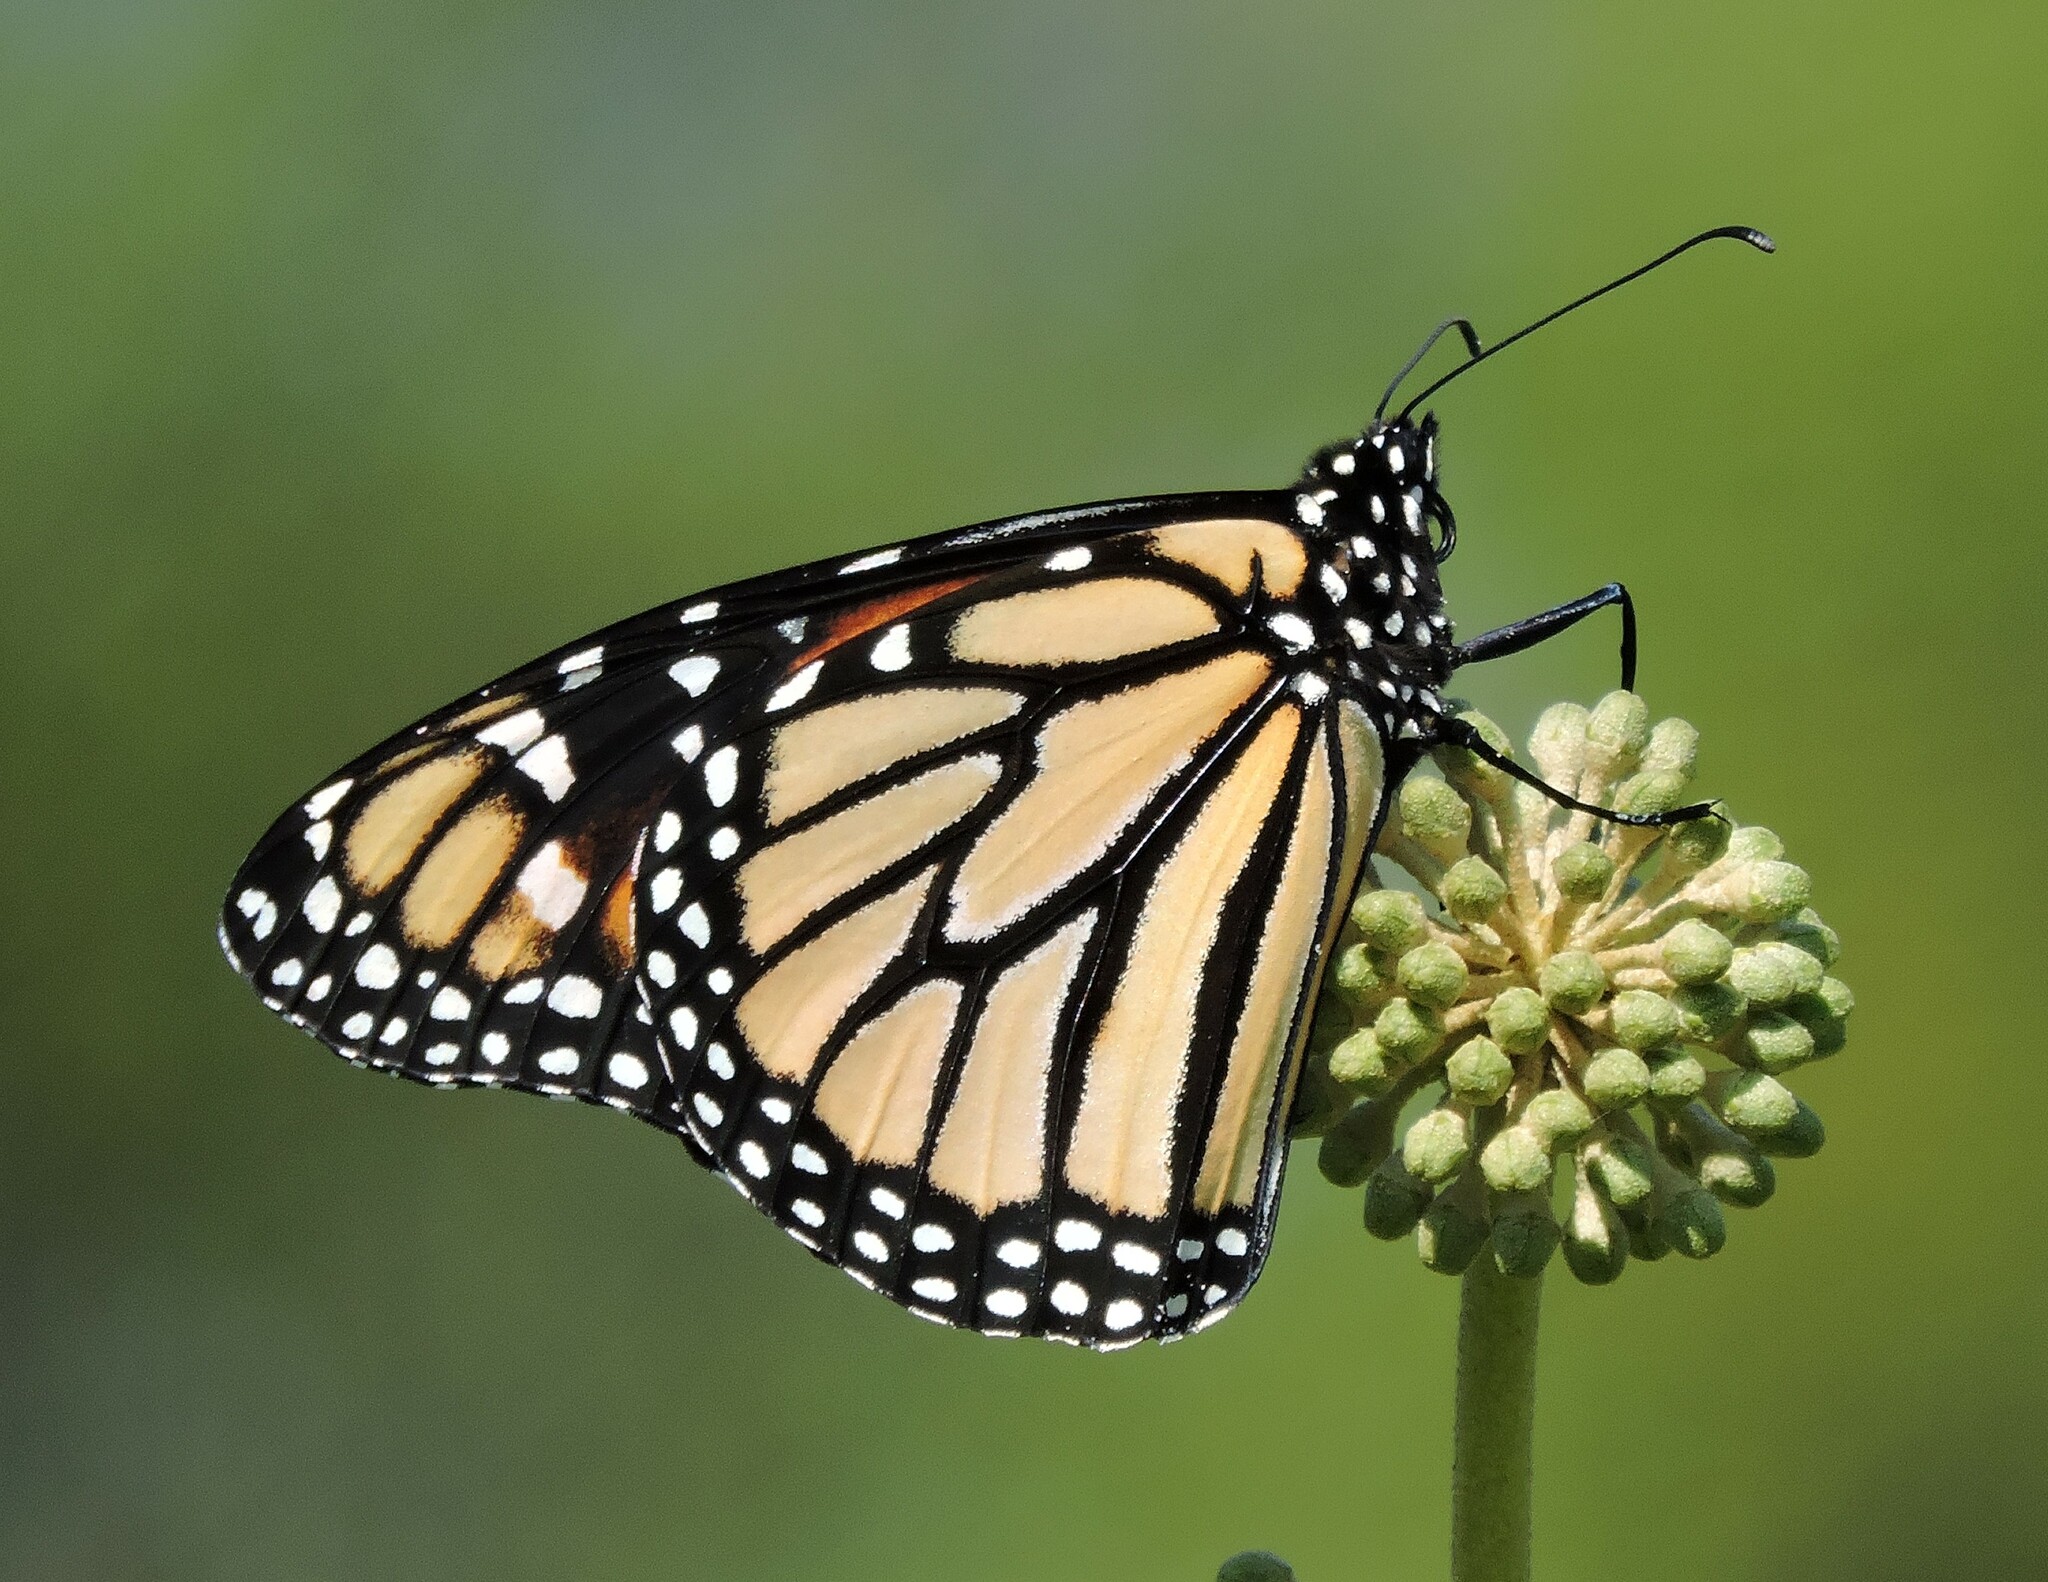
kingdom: Animalia
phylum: Arthropoda
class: Insecta
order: Lepidoptera
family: Nymphalidae
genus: Danaus
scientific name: Danaus plexippus
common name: Monarch
